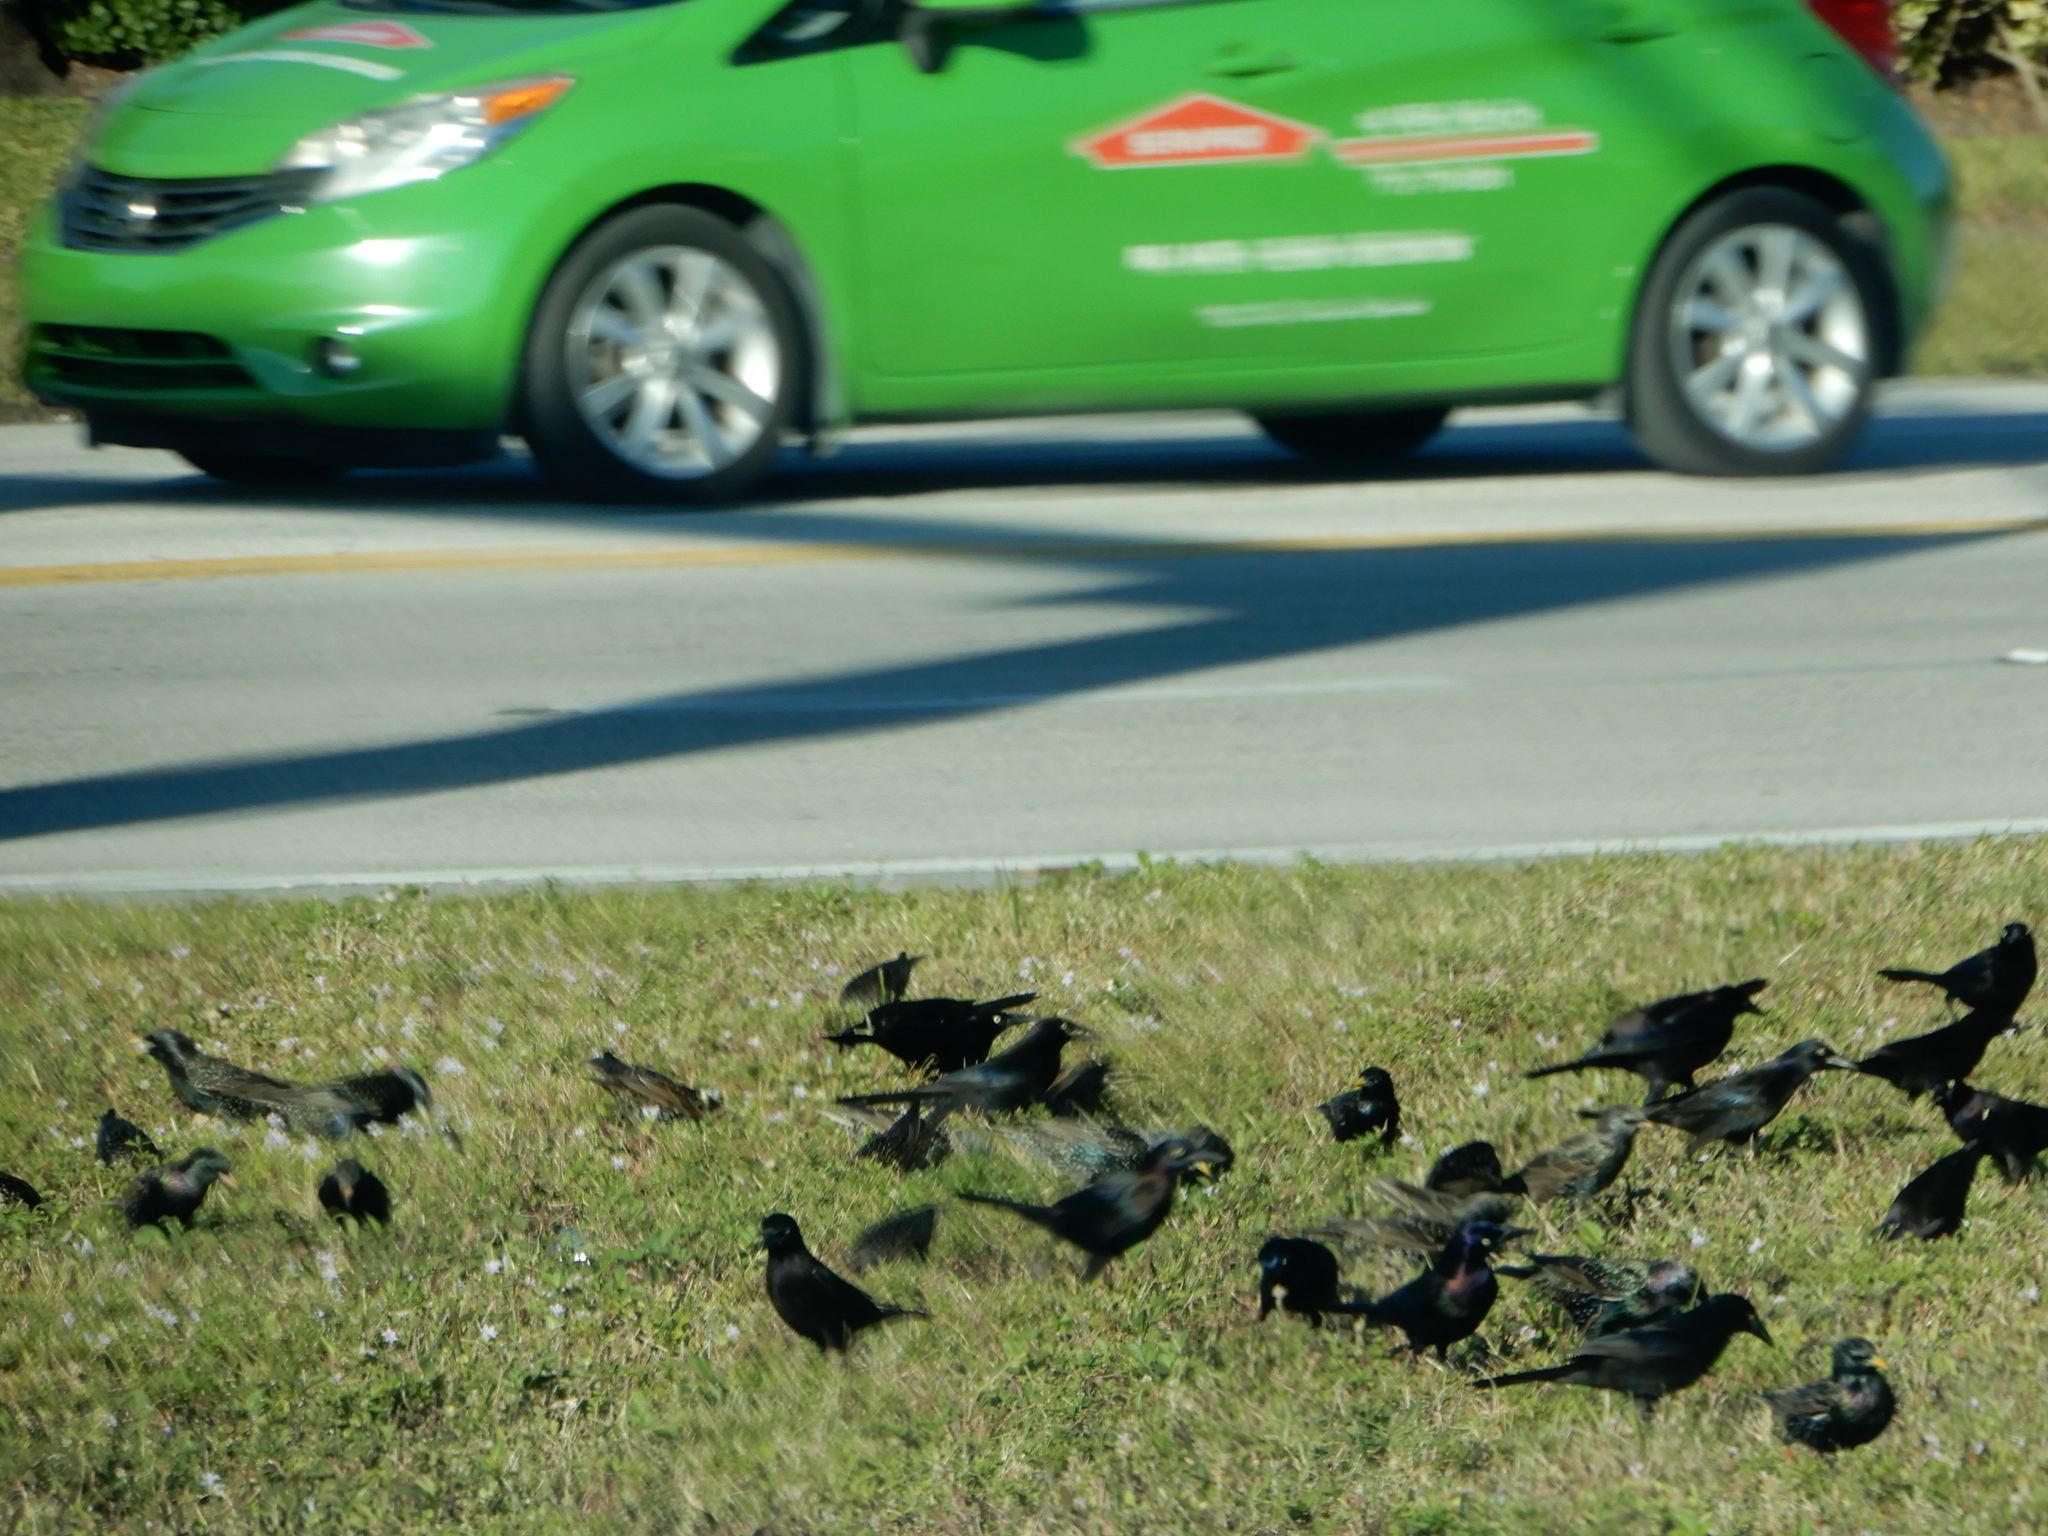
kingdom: Animalia
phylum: Chordata
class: Aves
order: Passeriformes
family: Sturnidae
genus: Sturnus
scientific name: Sturnus vulgaris
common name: Common starling
